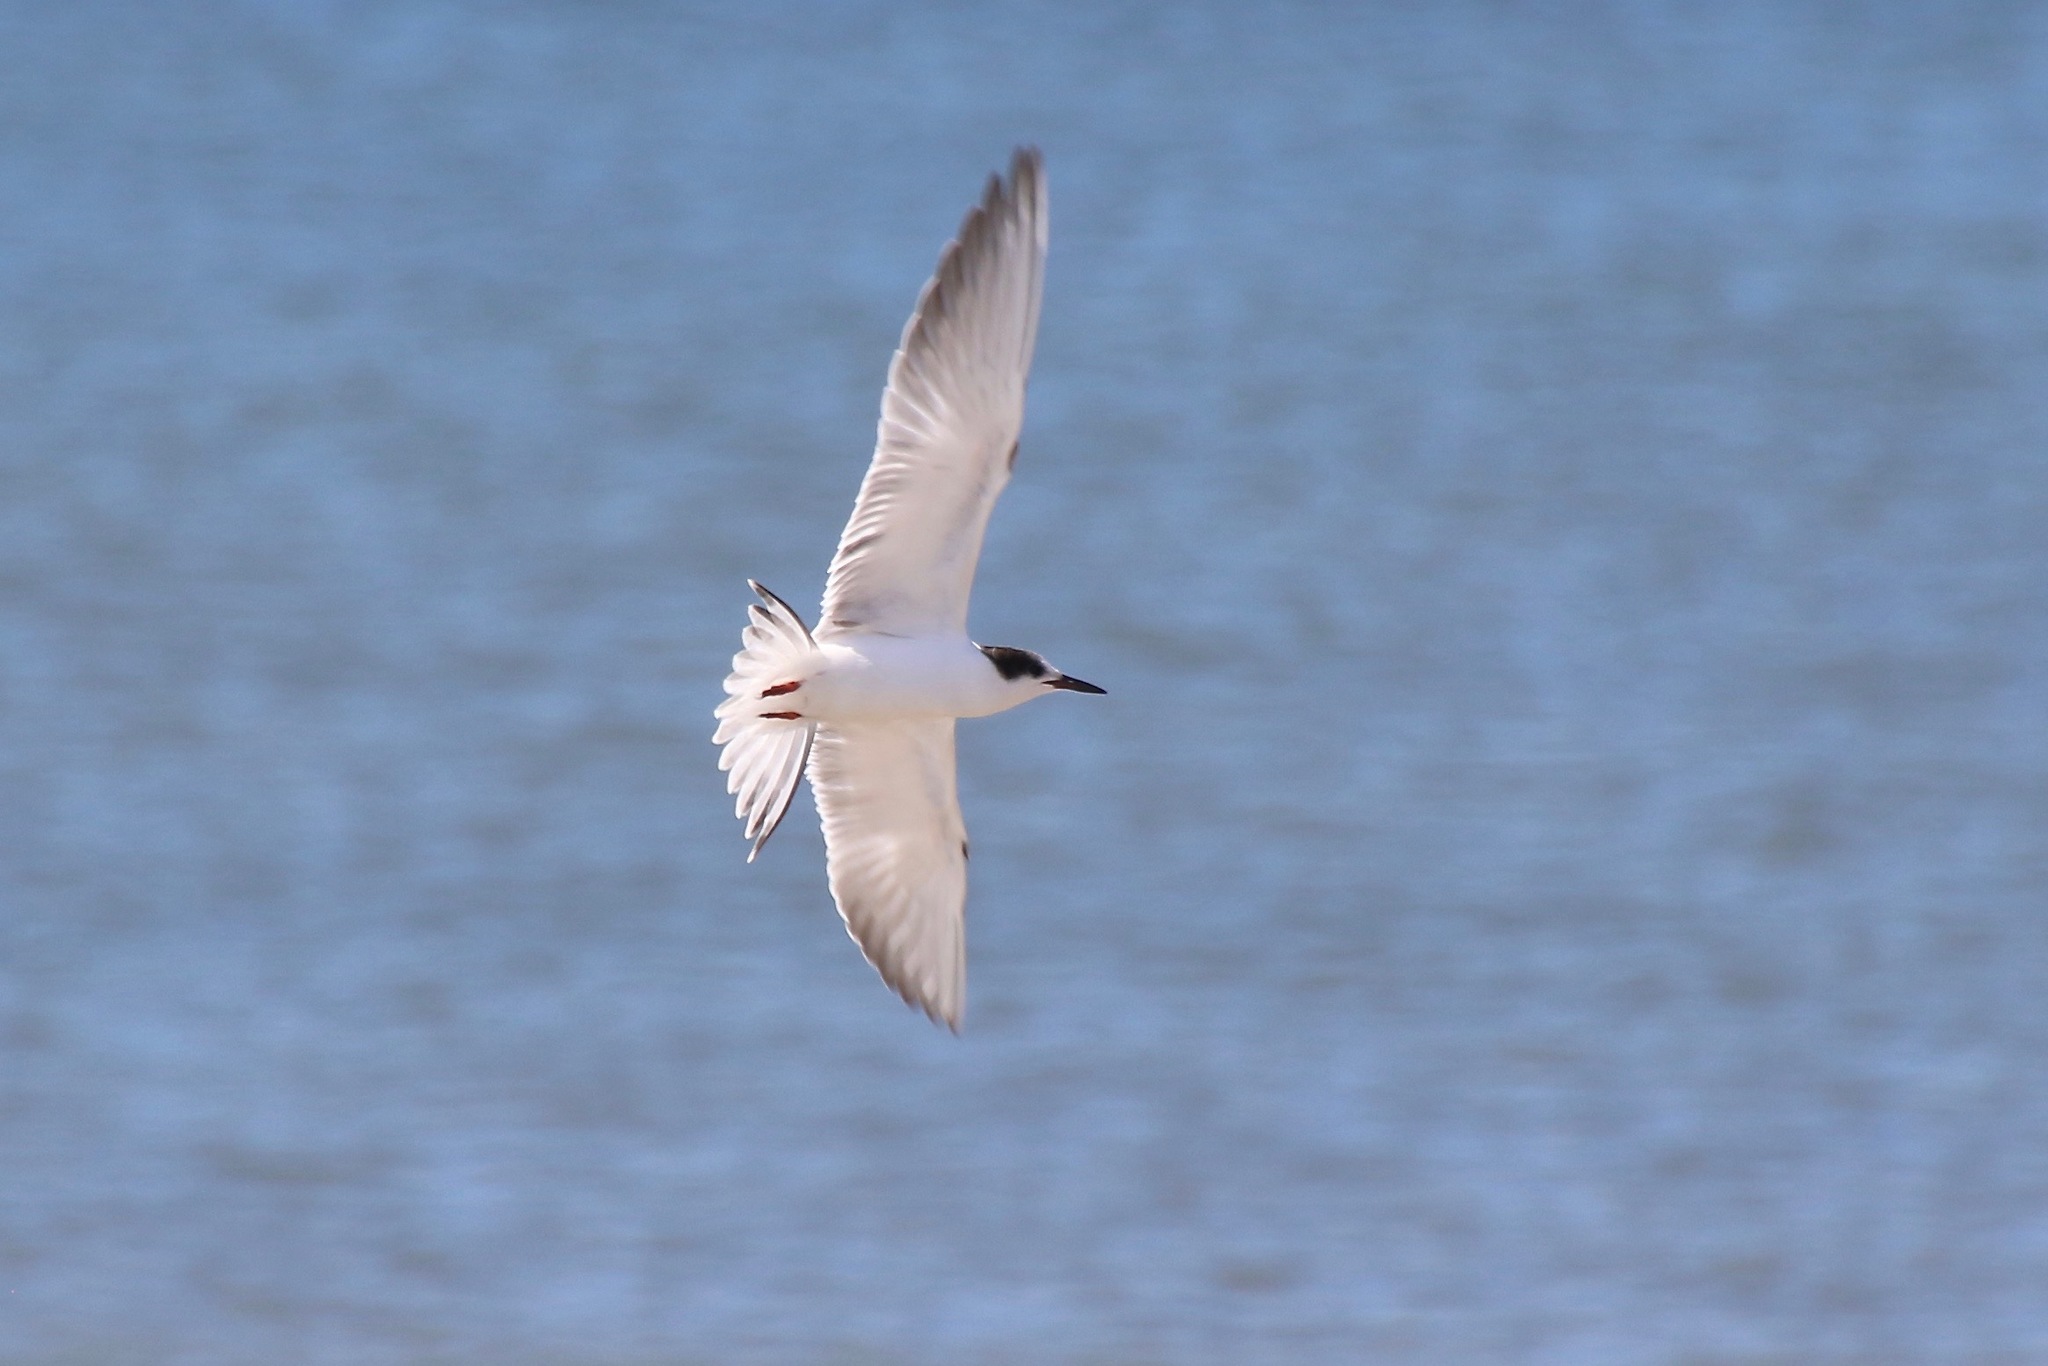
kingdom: Animalia
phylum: Chordata
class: Aves
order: Charadriiformes
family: Laridae
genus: Sterna
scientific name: Sterna hirundo
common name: Common tern
